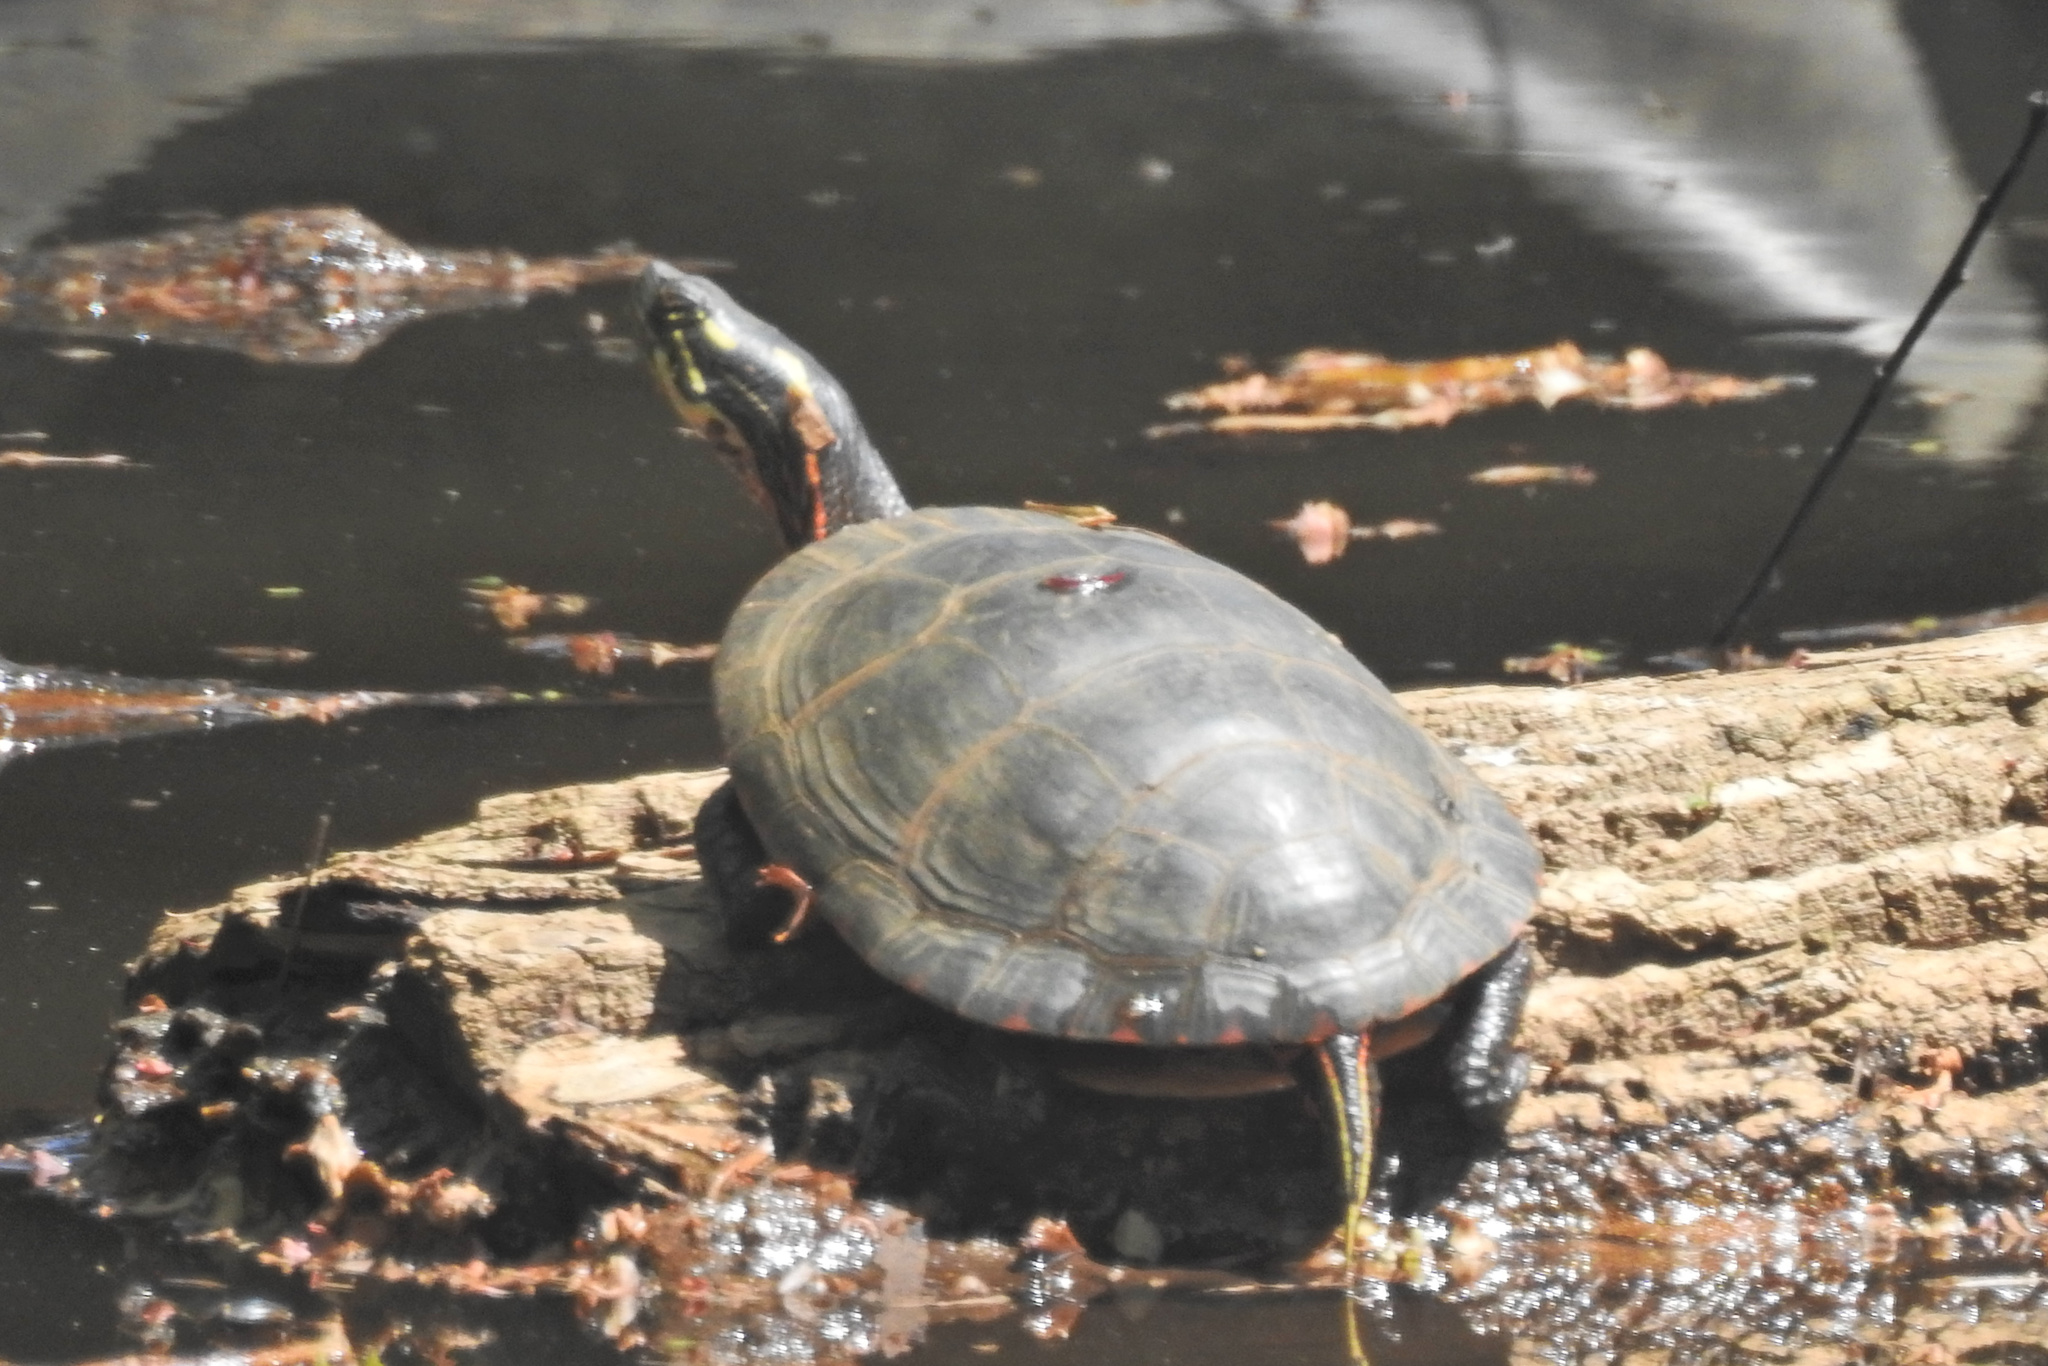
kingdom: Animalia
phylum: Chordata
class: Testudines
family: Emydidae
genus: Chrysemys
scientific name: Chrysemys picta
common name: Painted turtle
